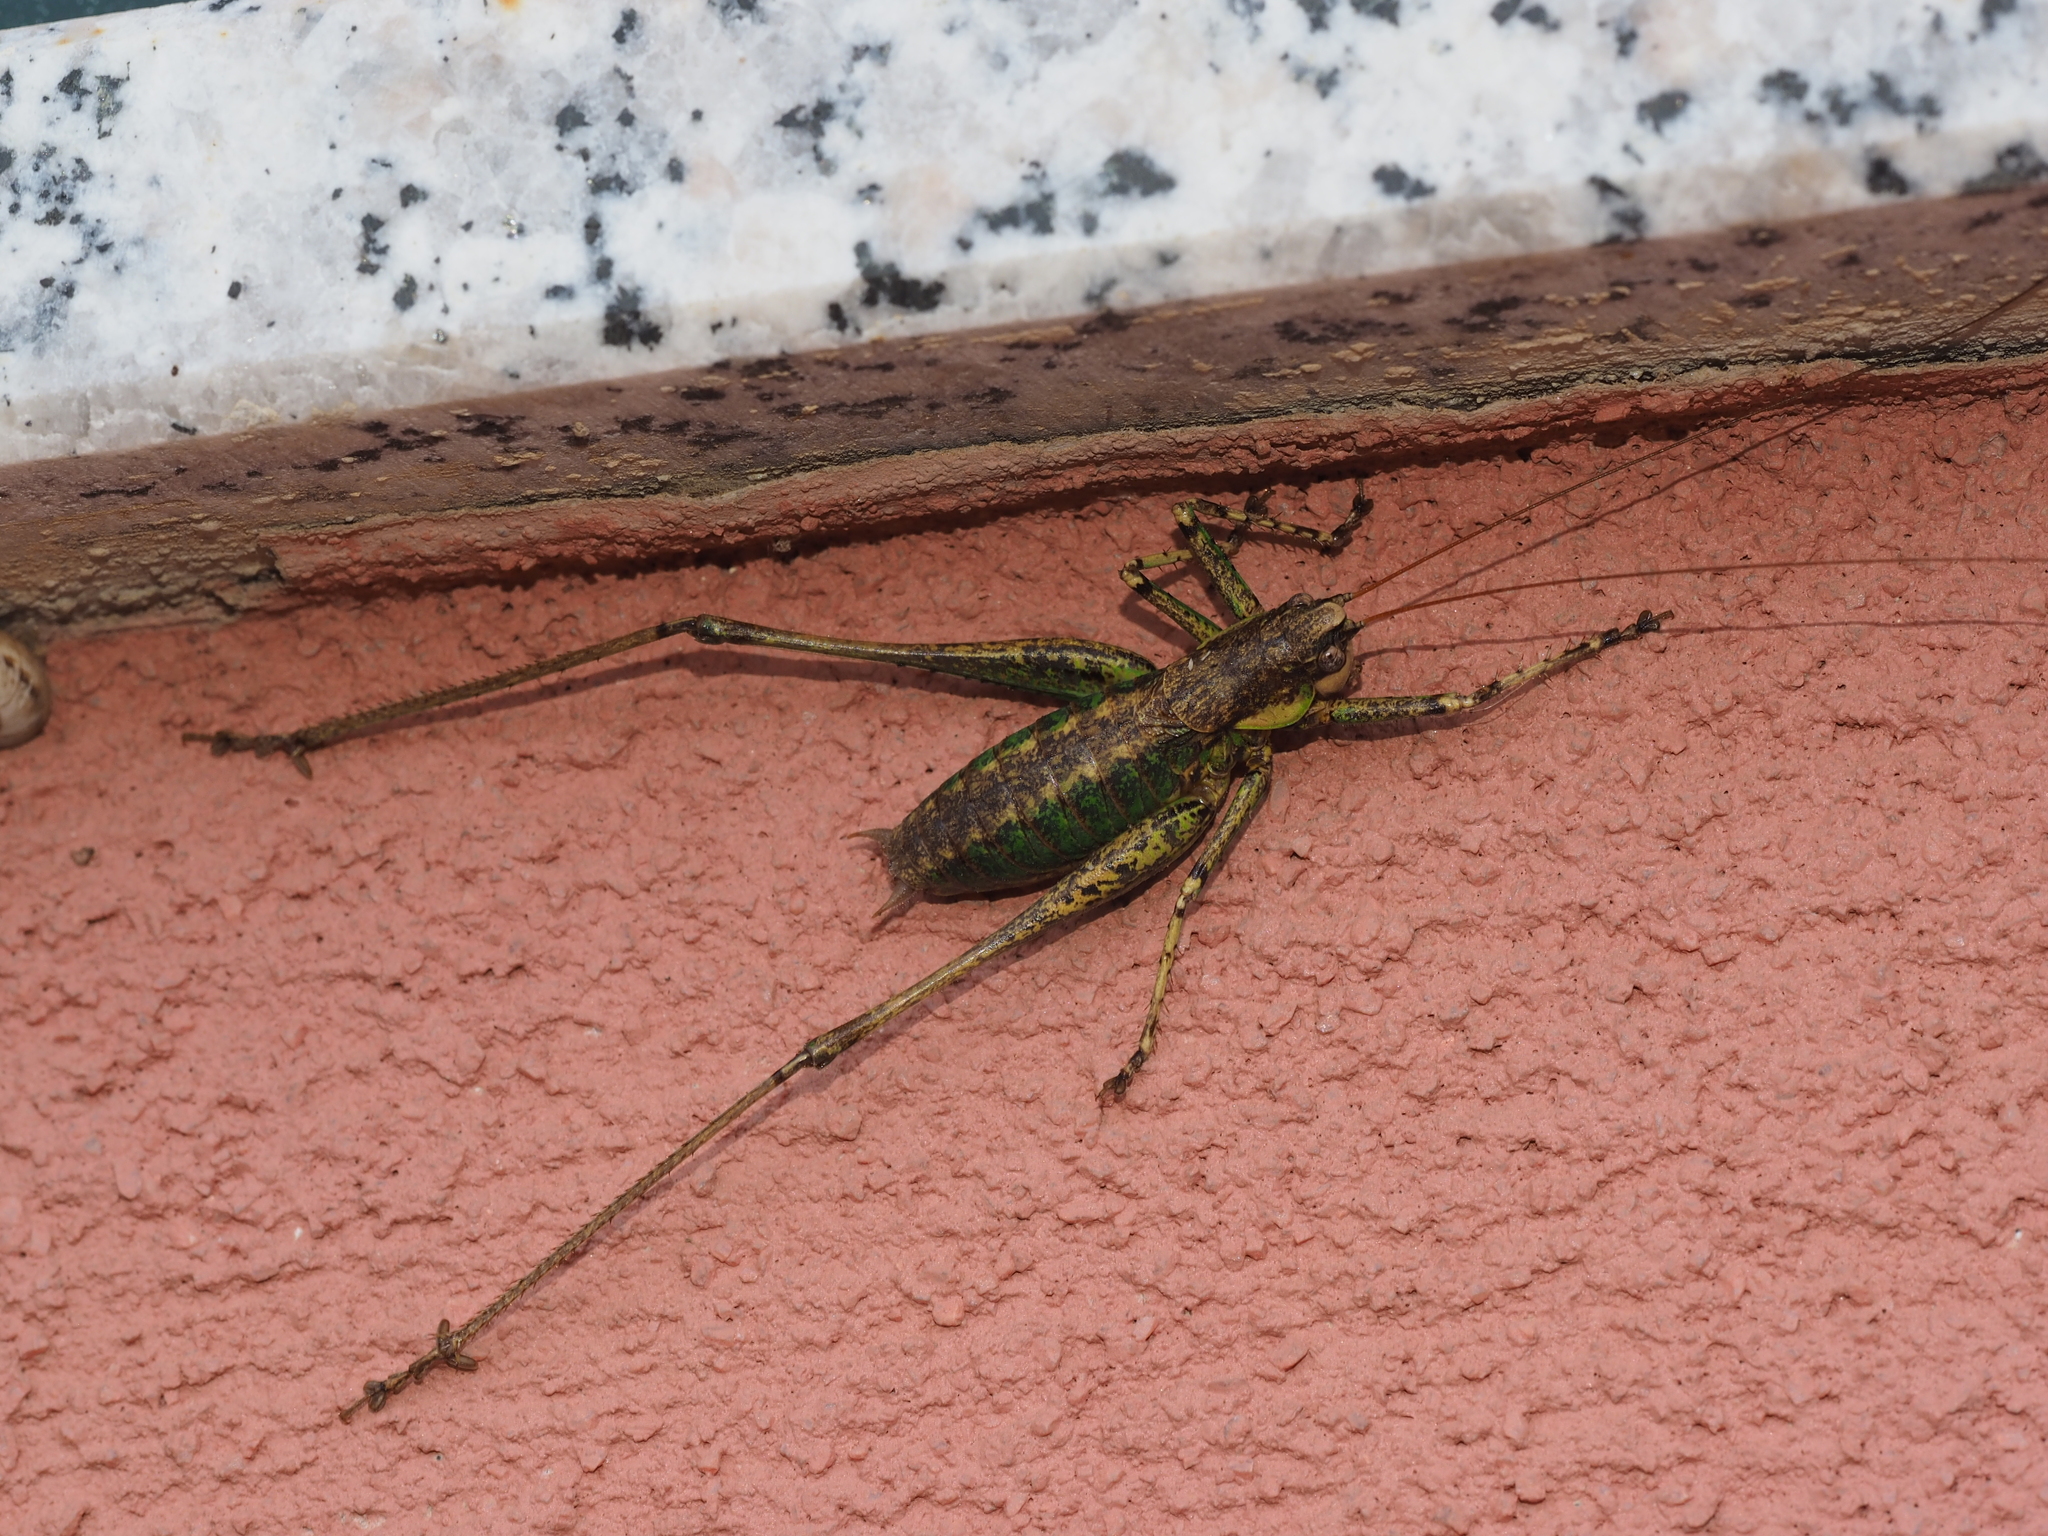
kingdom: Animalia
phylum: Arthropoda
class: Insecta
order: Orthoptera
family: Tettigoniidae
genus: Rhacocleis
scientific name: Rhacocleis annulata
